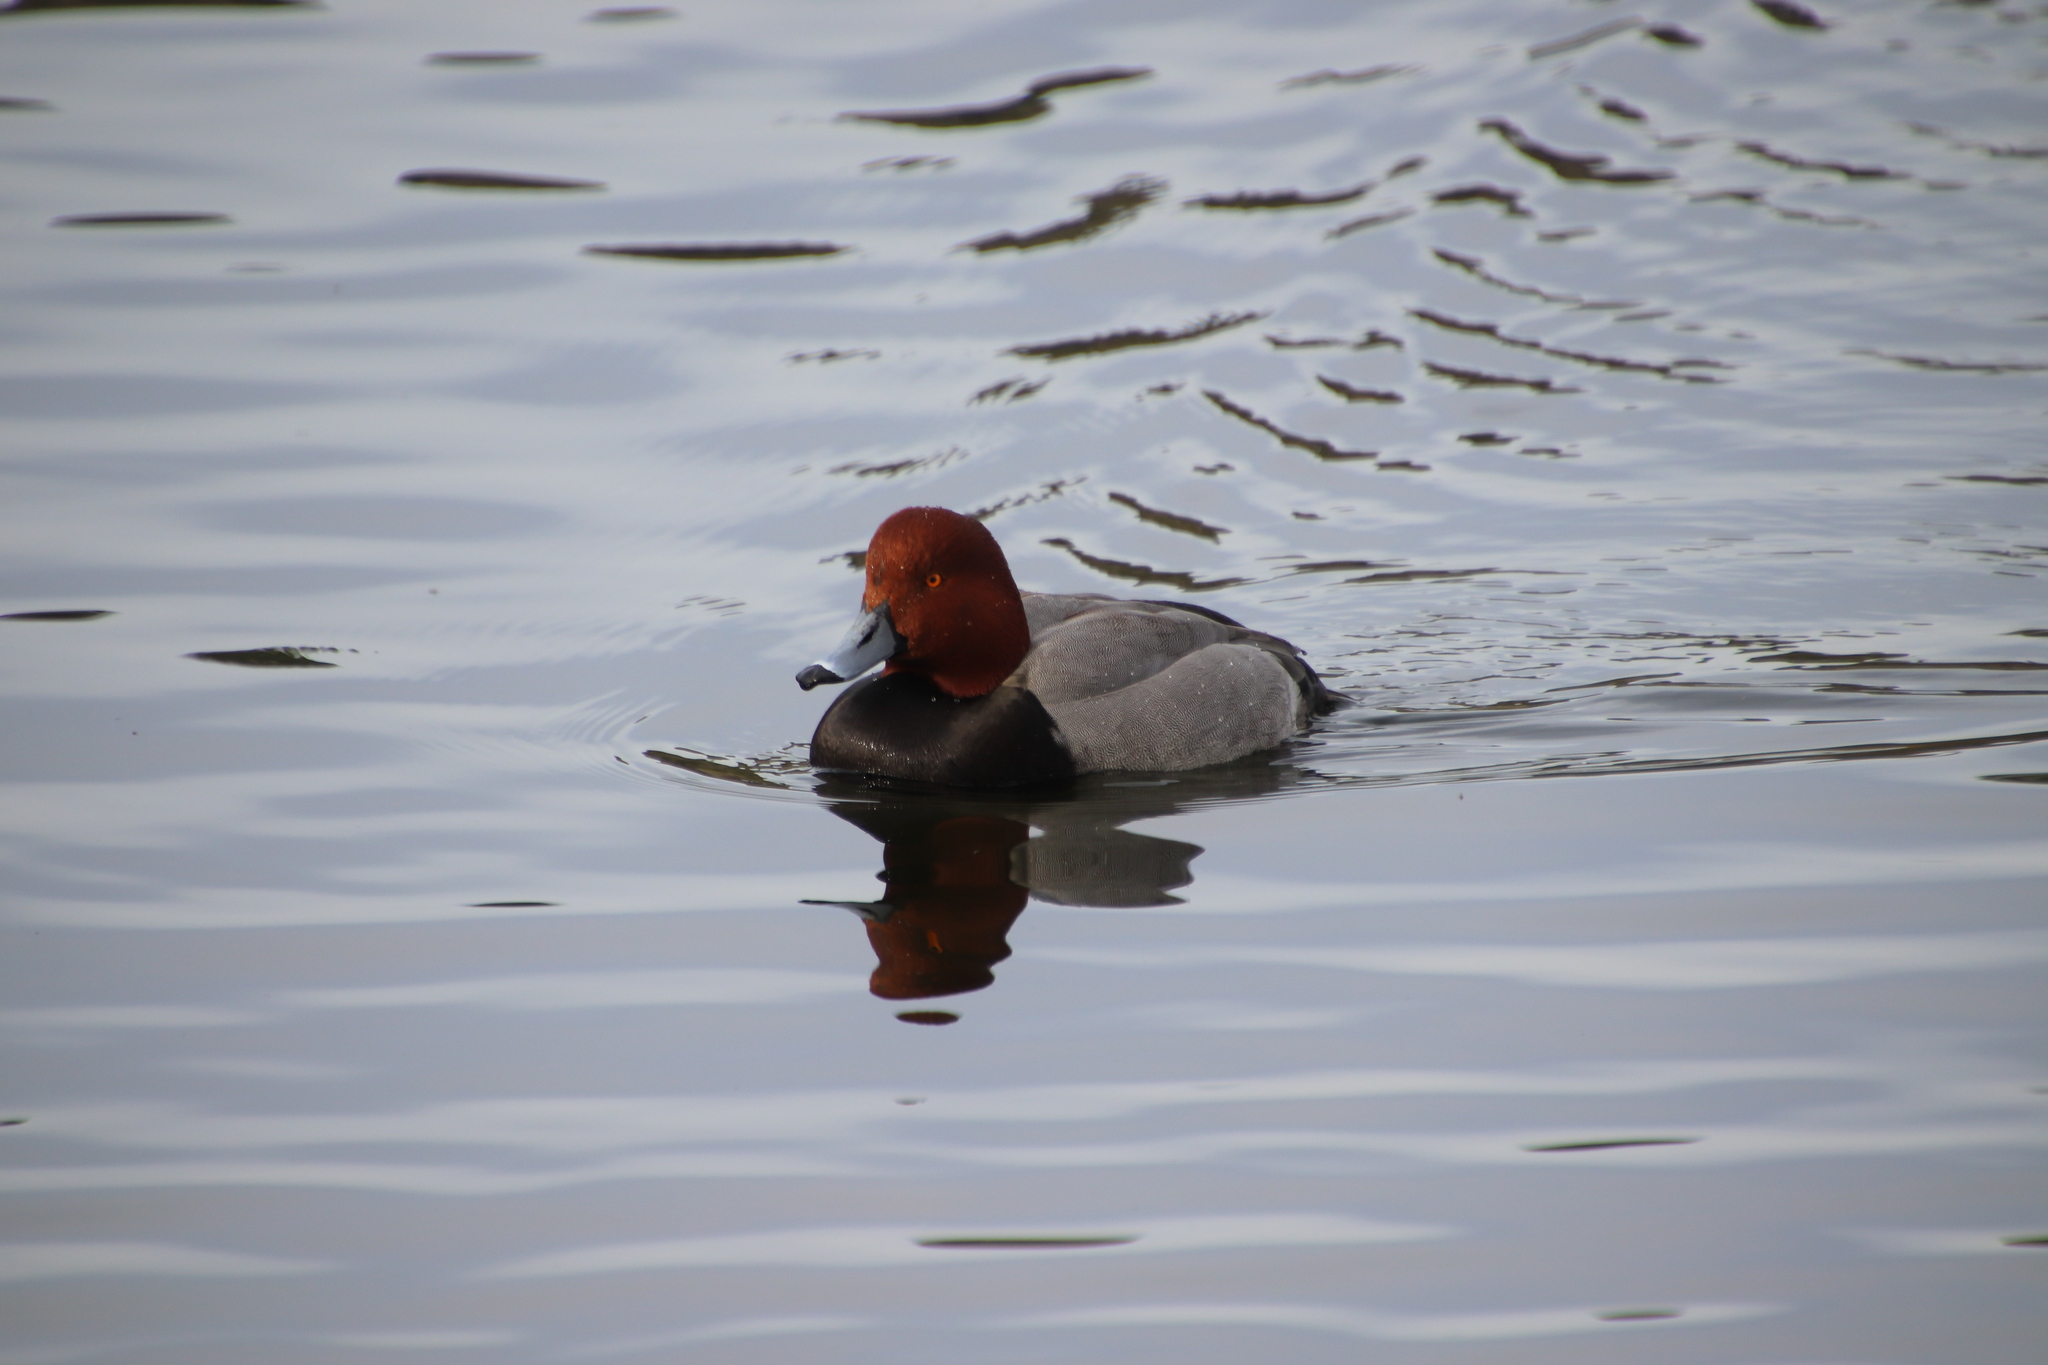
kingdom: Animalia
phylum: Chordata
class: Aves
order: Anseriformes
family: Anatidae
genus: Aythya
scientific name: Aythya americana
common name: Redhead
